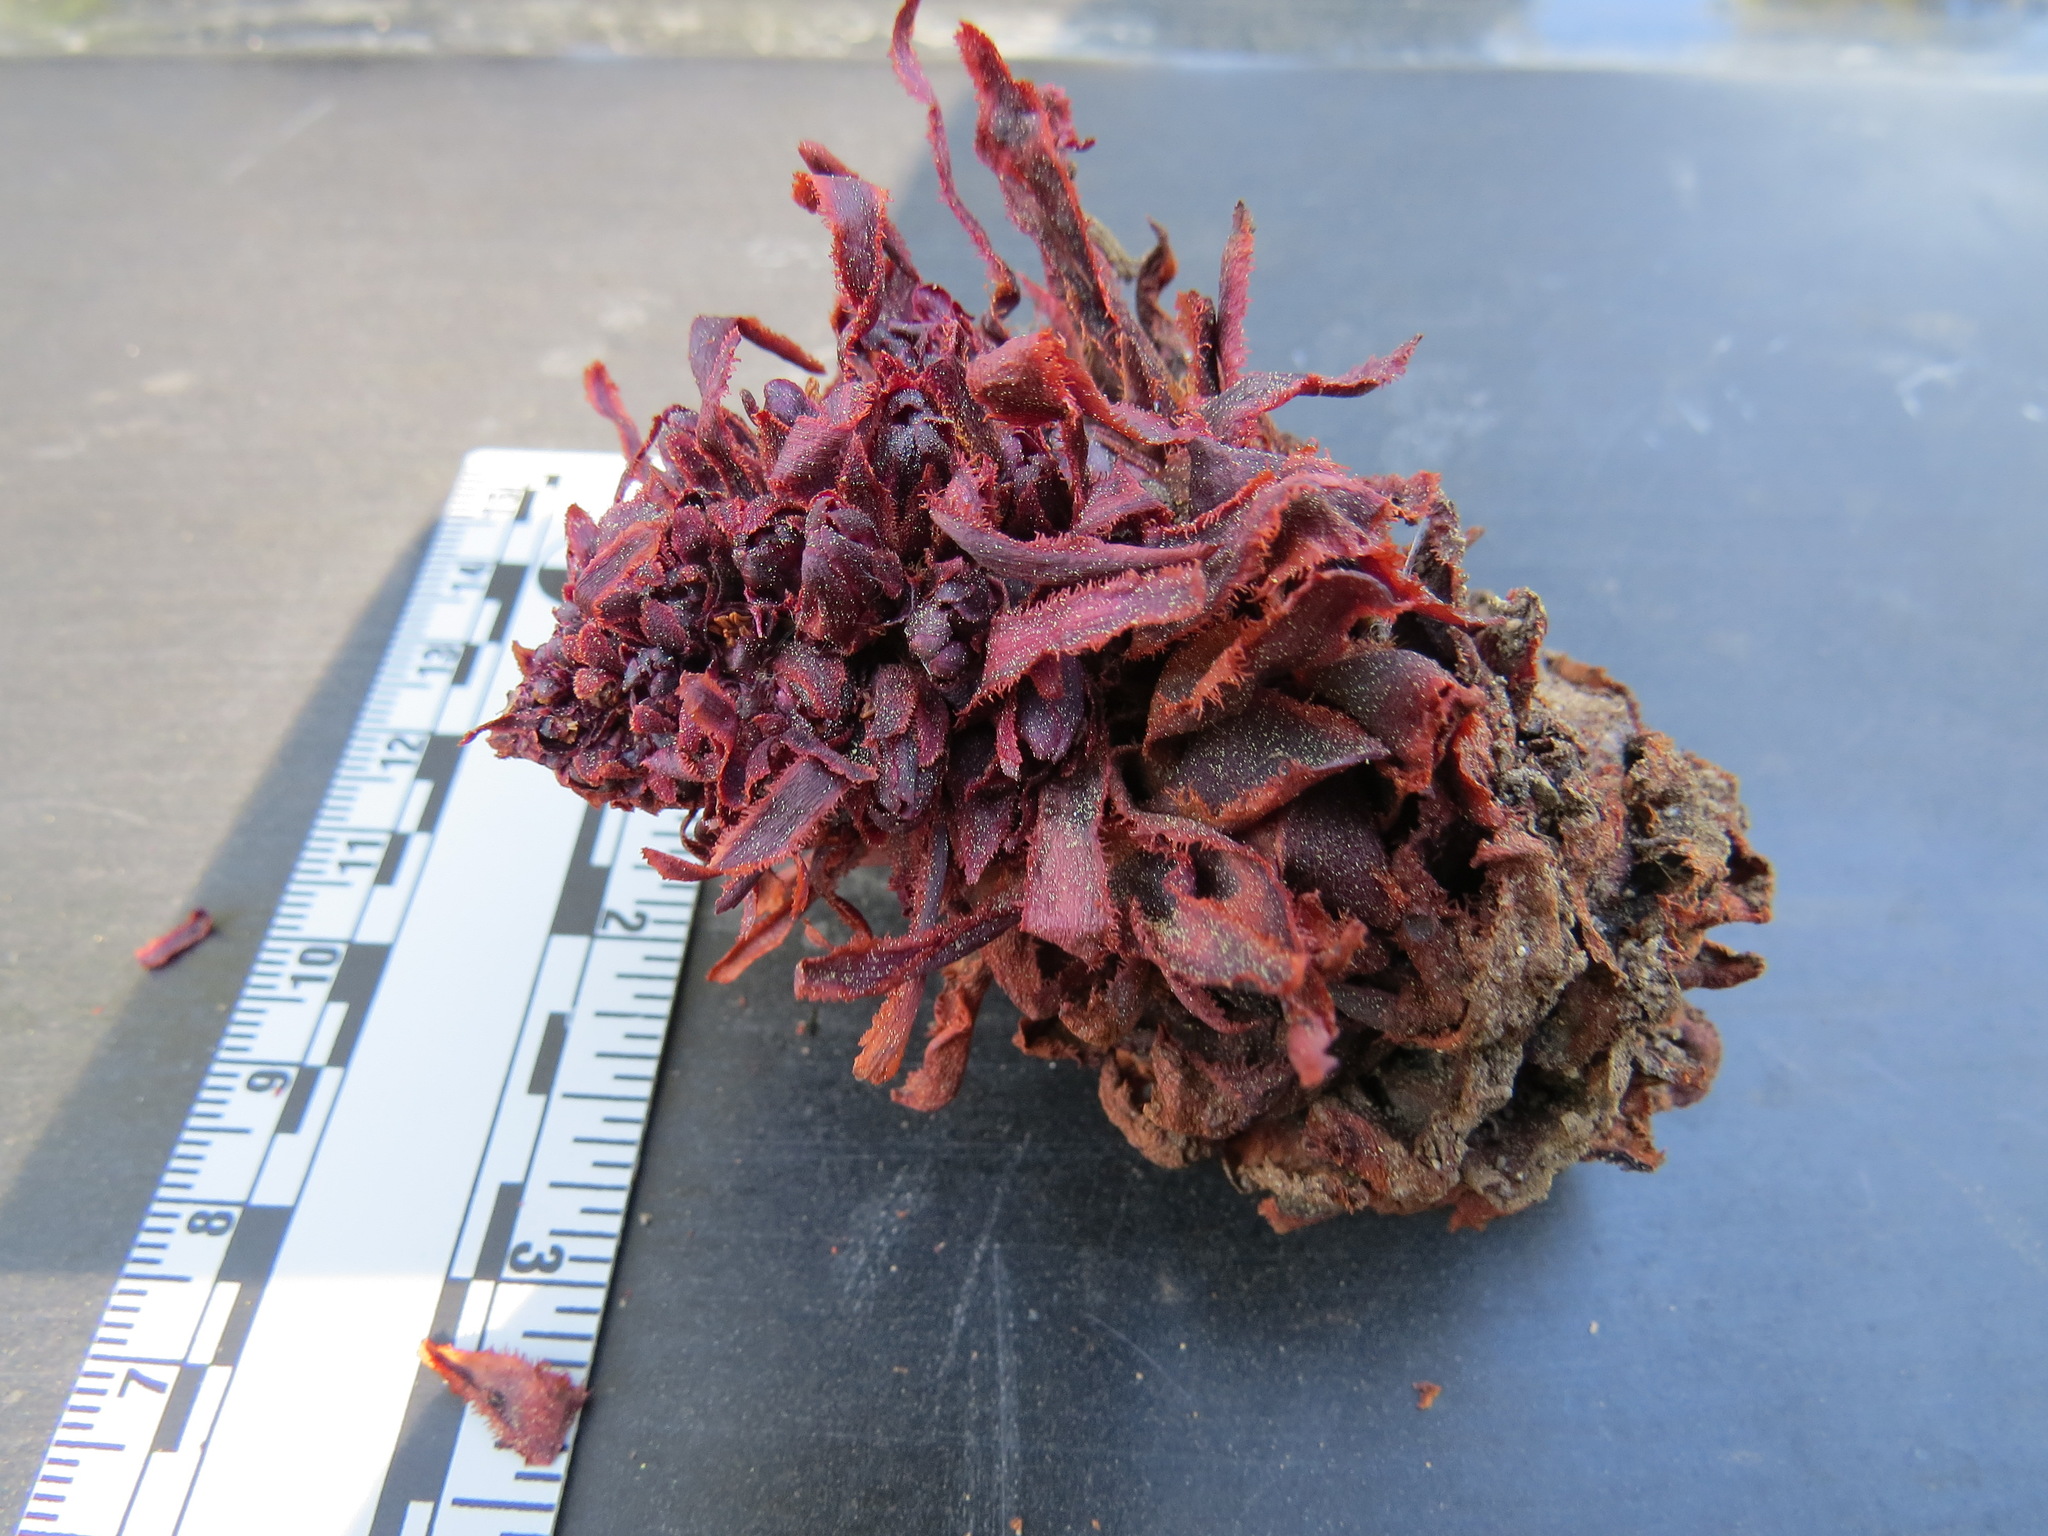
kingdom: Plantae
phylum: Tracheophyta
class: Magnoliopsida
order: Ericales
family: Ericaceae
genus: Sarcodes
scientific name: Sarcodes sanguinea
